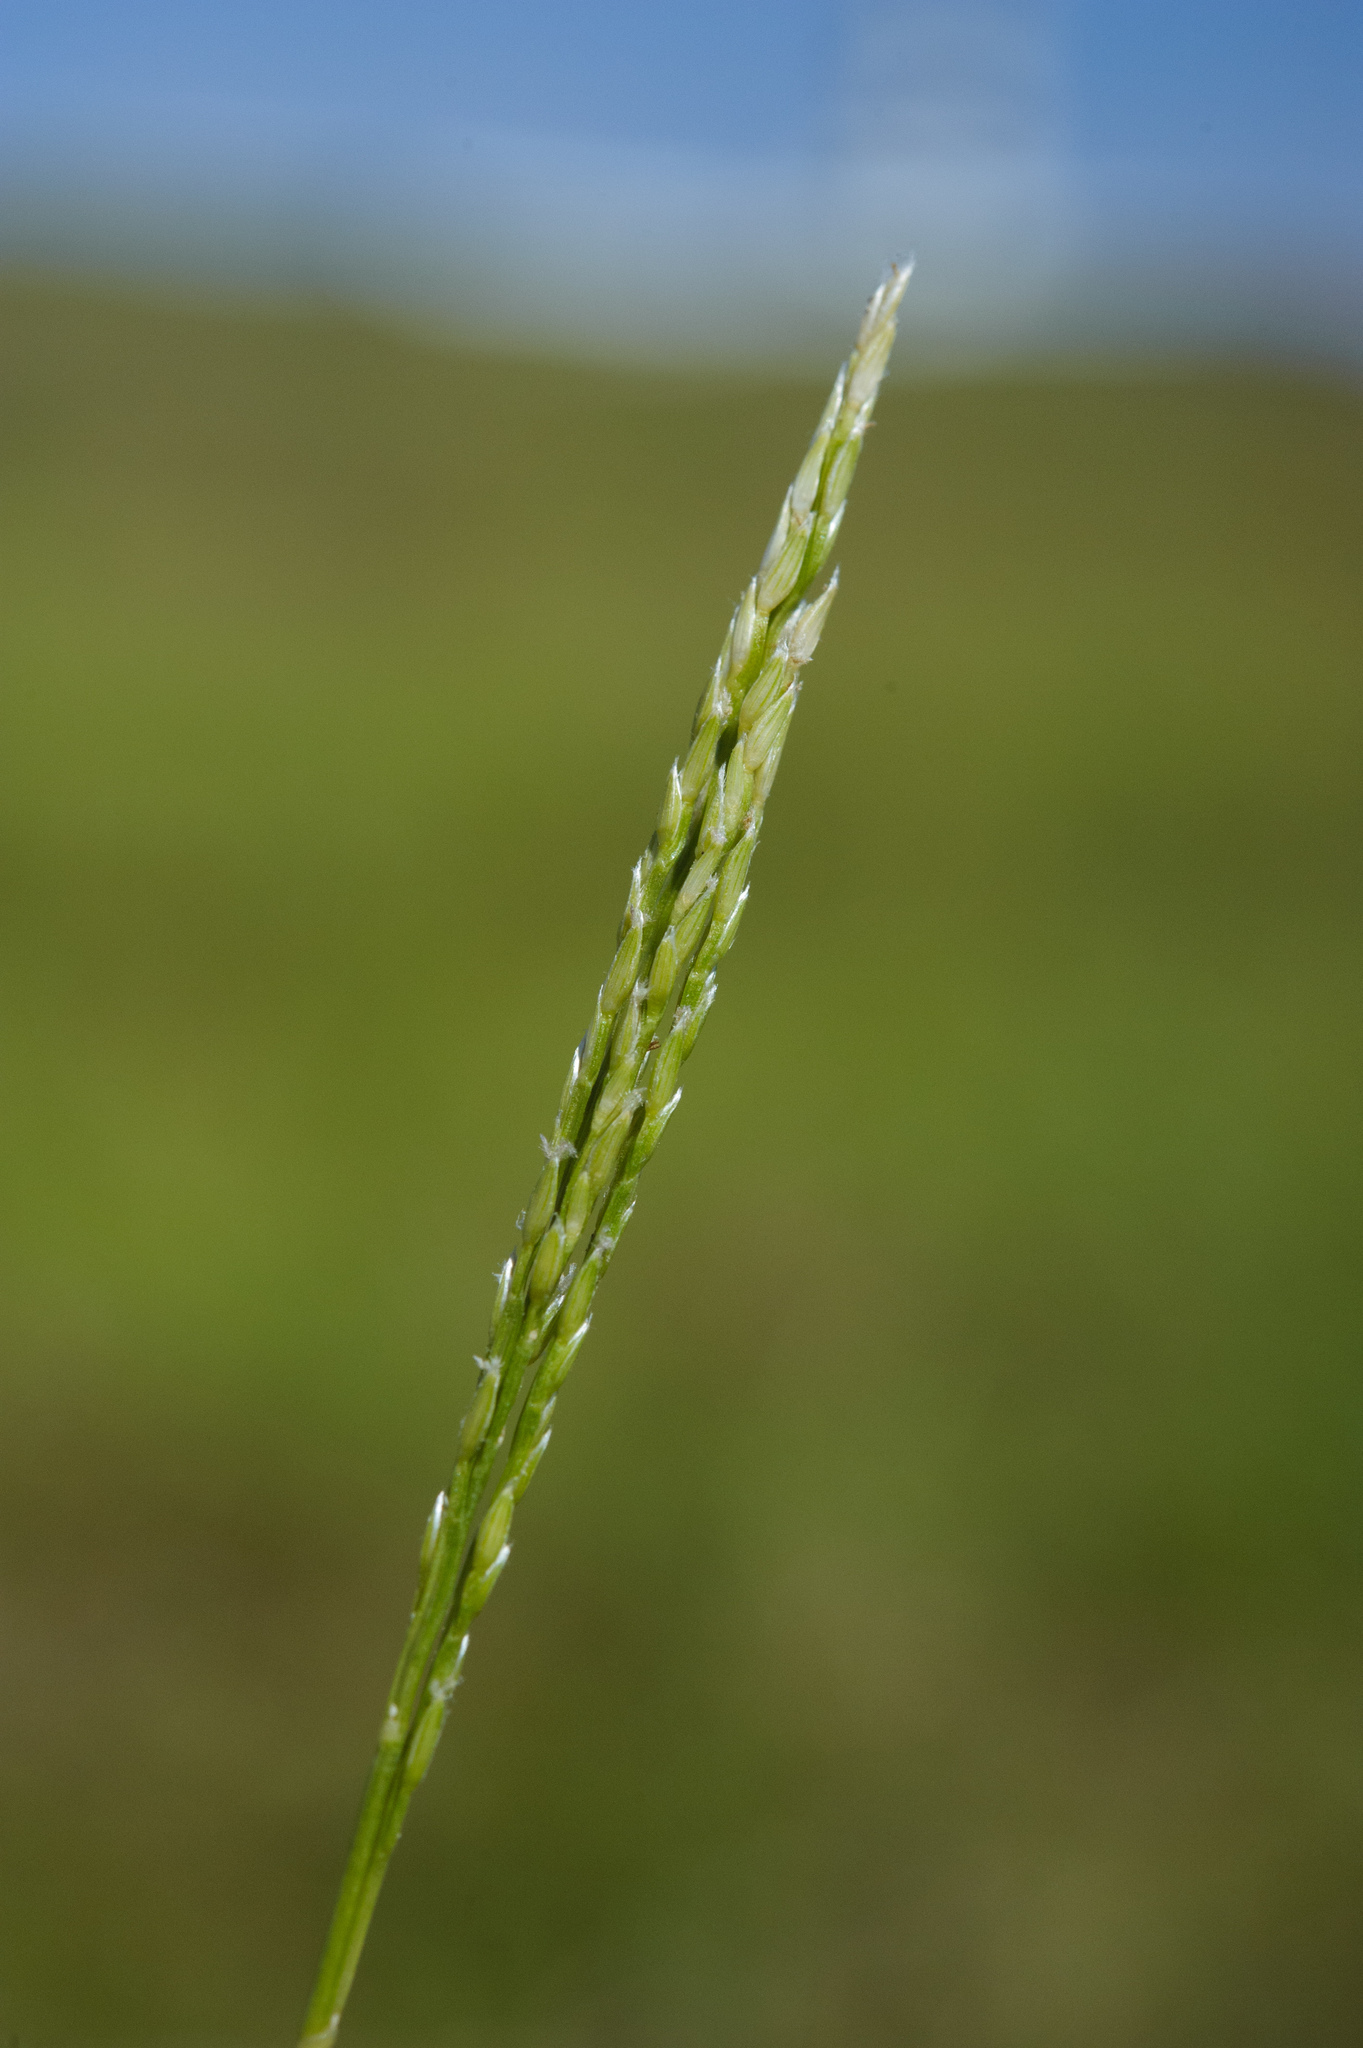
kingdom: Plantae
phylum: Tracheophyta
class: Liliopsida
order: Poales
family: Poaceae
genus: Digitaria
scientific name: Digitaria ciliaris
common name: Tropical finger-grass
